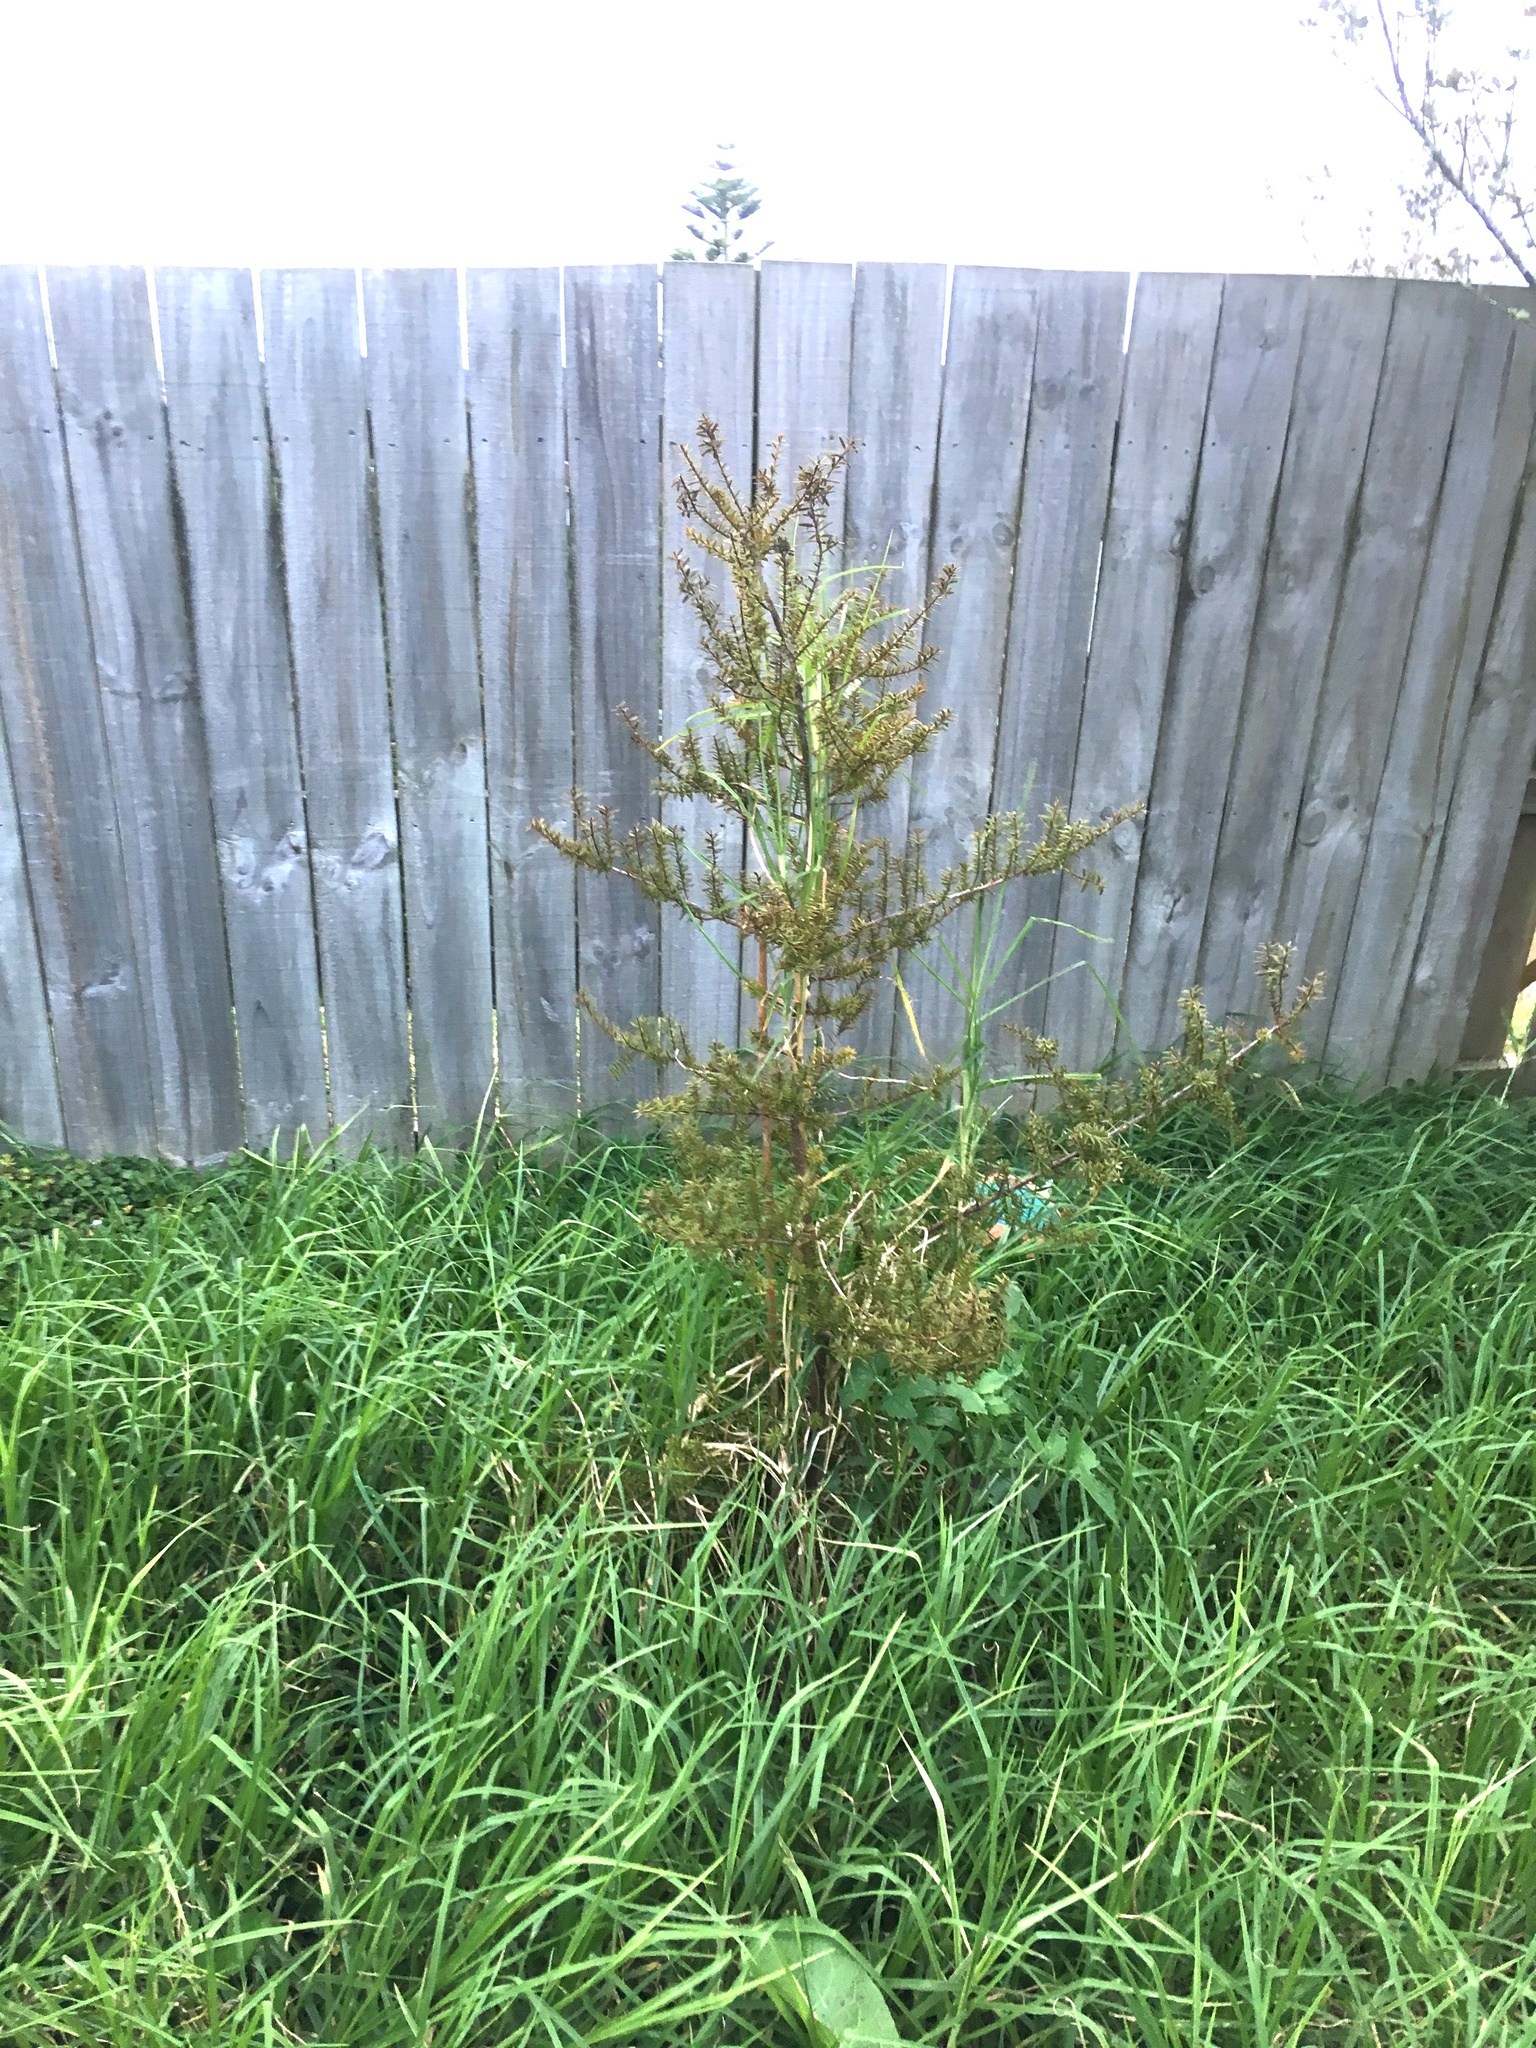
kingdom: Plantae
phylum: Tracheophyta
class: Pinopsida
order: Pinales
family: Podocarpaceae
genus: Podocarpus
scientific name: Podocarpus totara
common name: Totara
